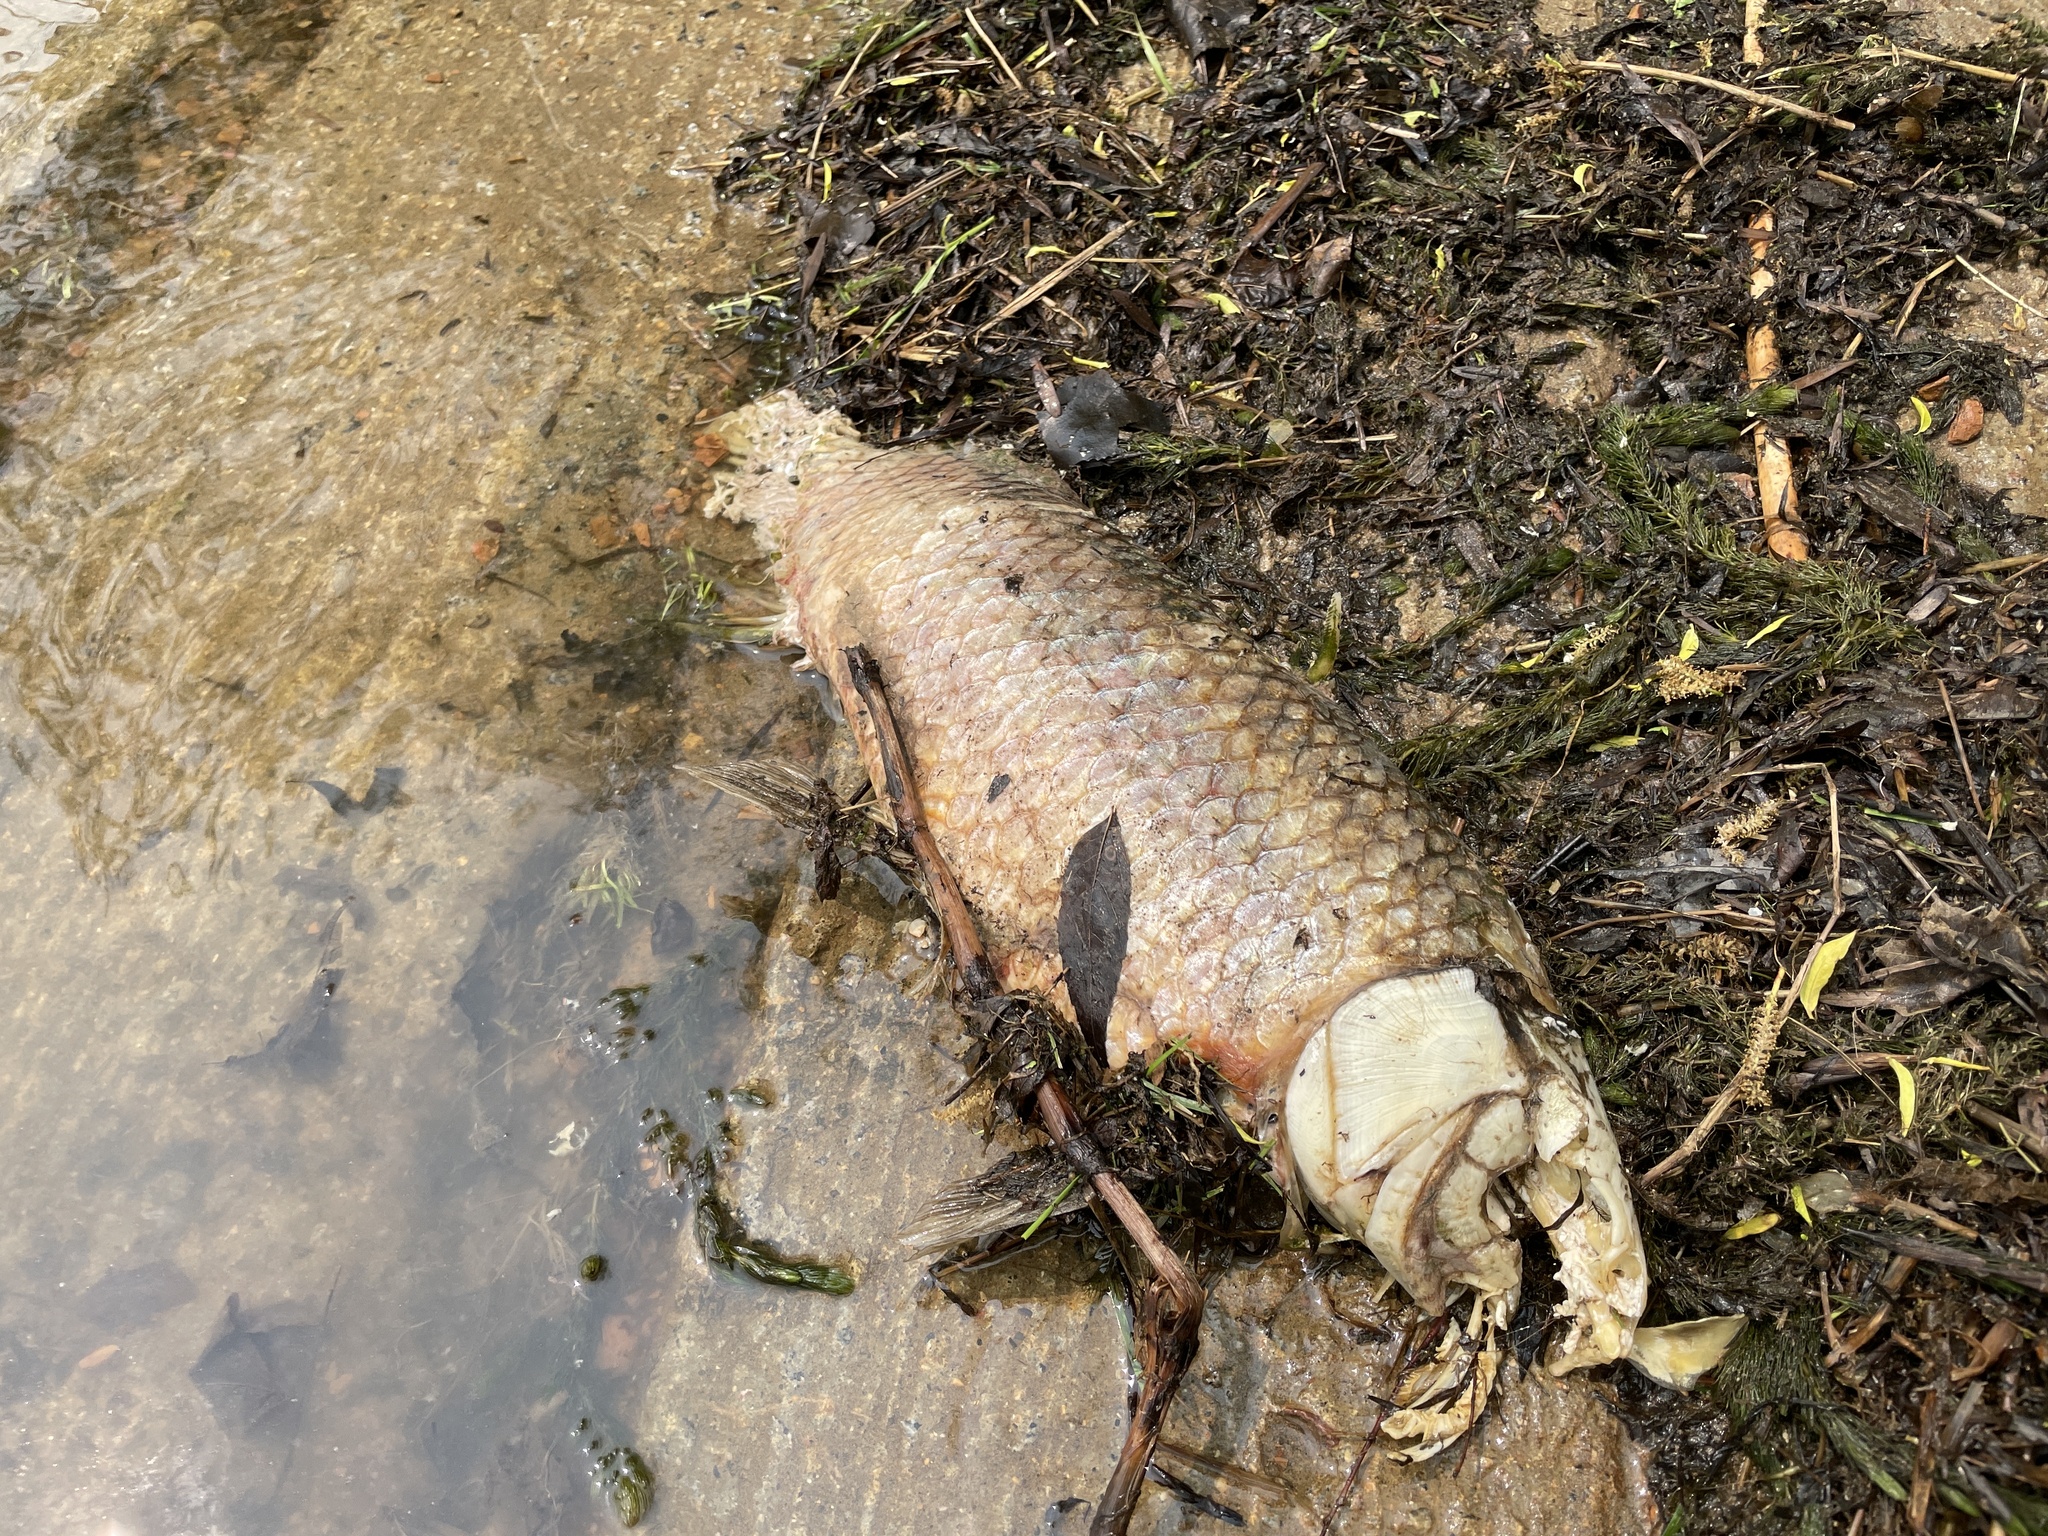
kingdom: Animalia
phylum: Chordata
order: Cypriniformes
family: Cyprinidae
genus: Cyprinus
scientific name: Cyprinus
